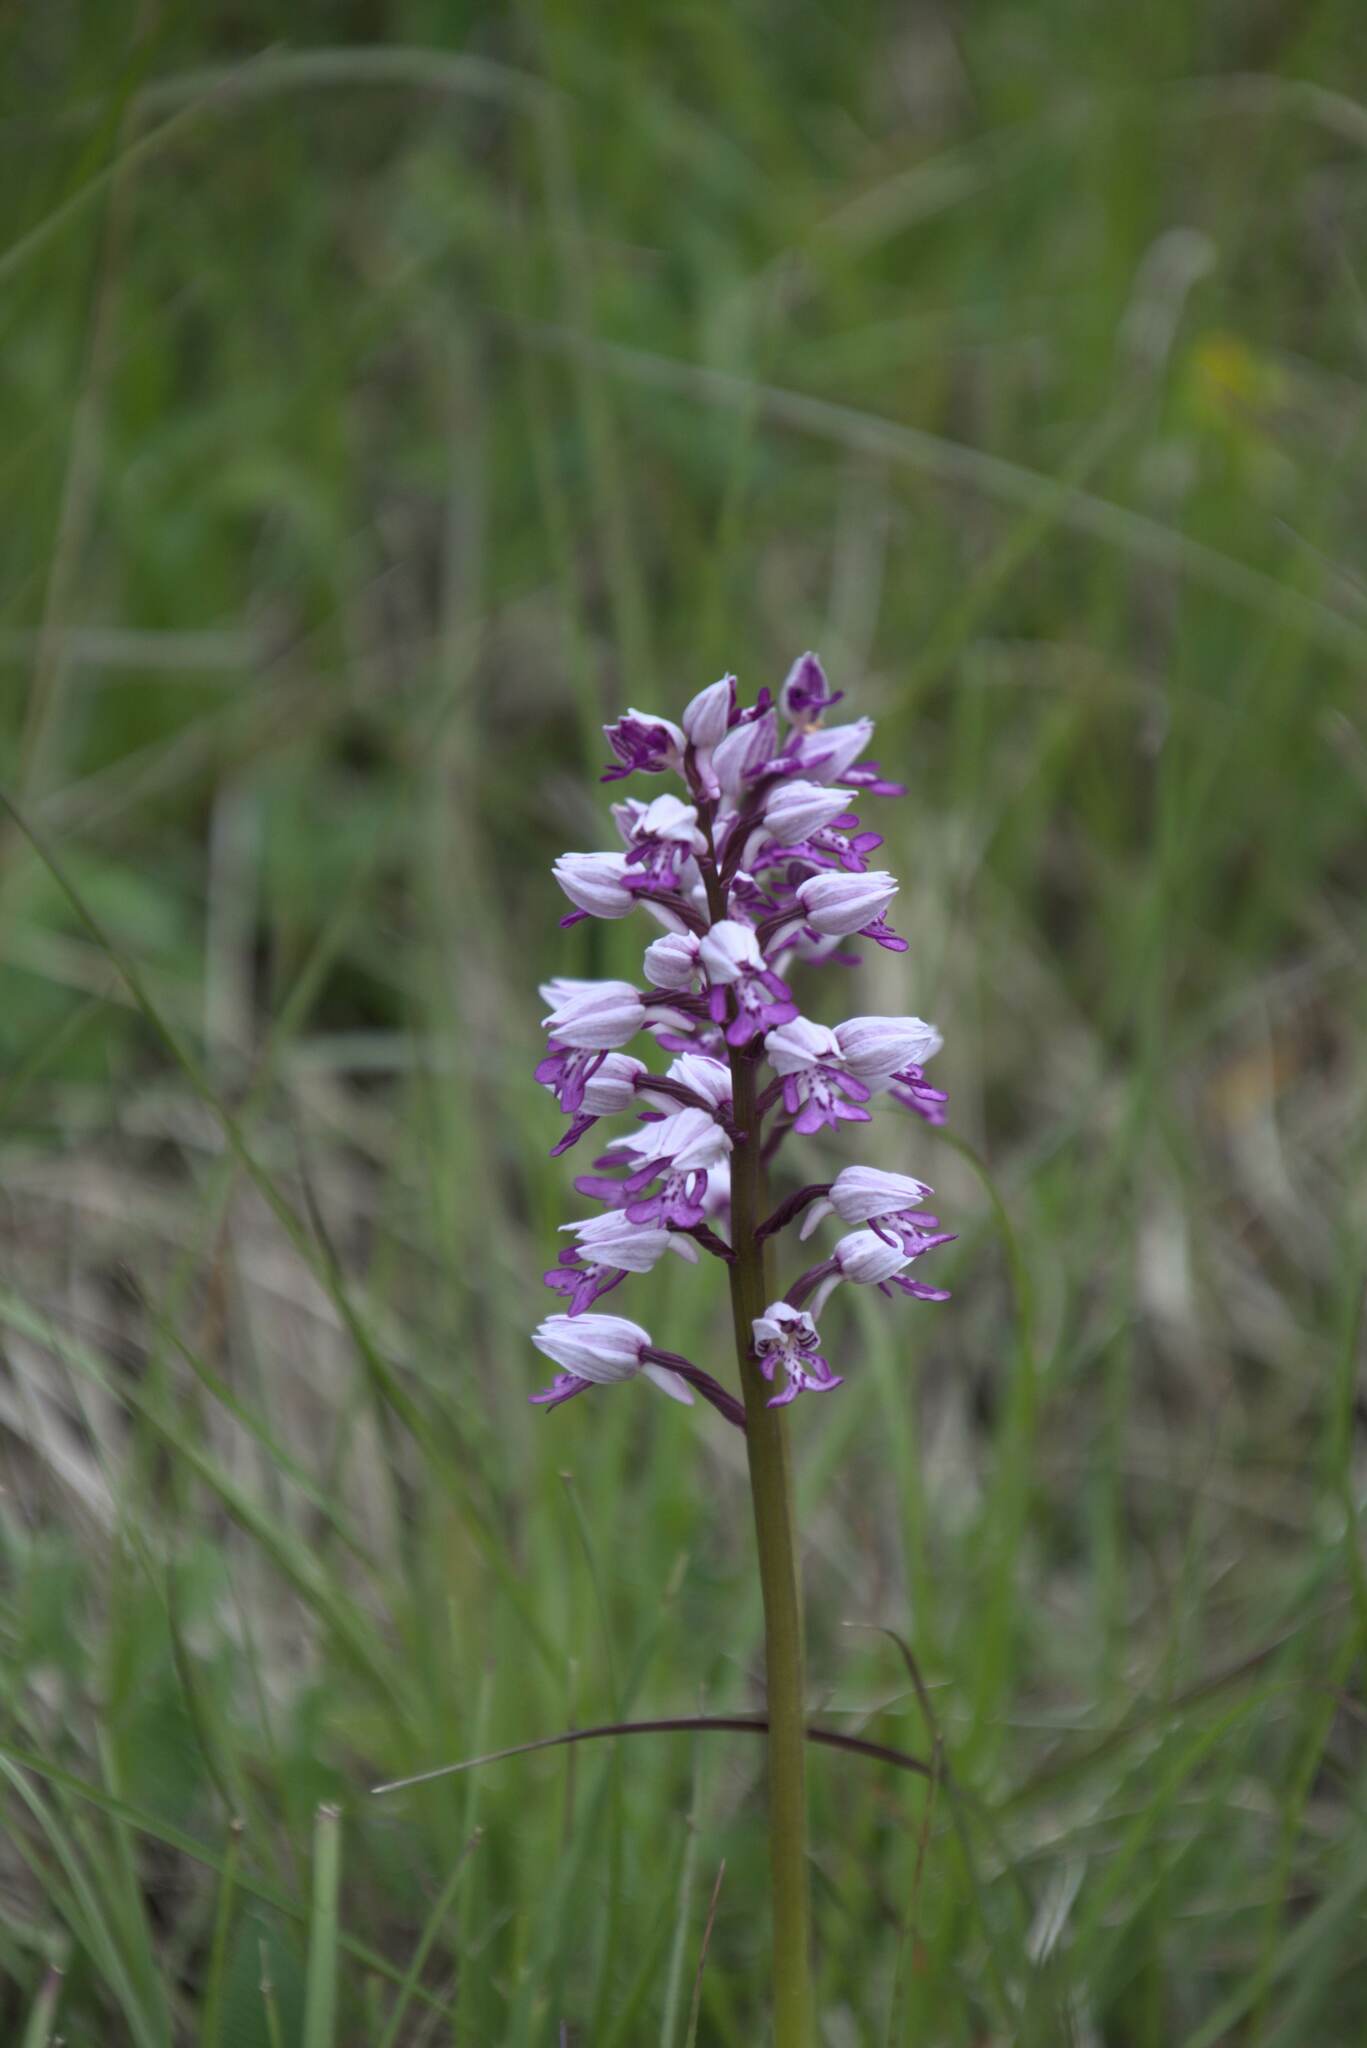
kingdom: Plantae
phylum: Tracheophyta
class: Liliopsida
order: Asparagales
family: Orchidaceae
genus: Orchis
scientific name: Orchis militaris
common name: Military orchid
